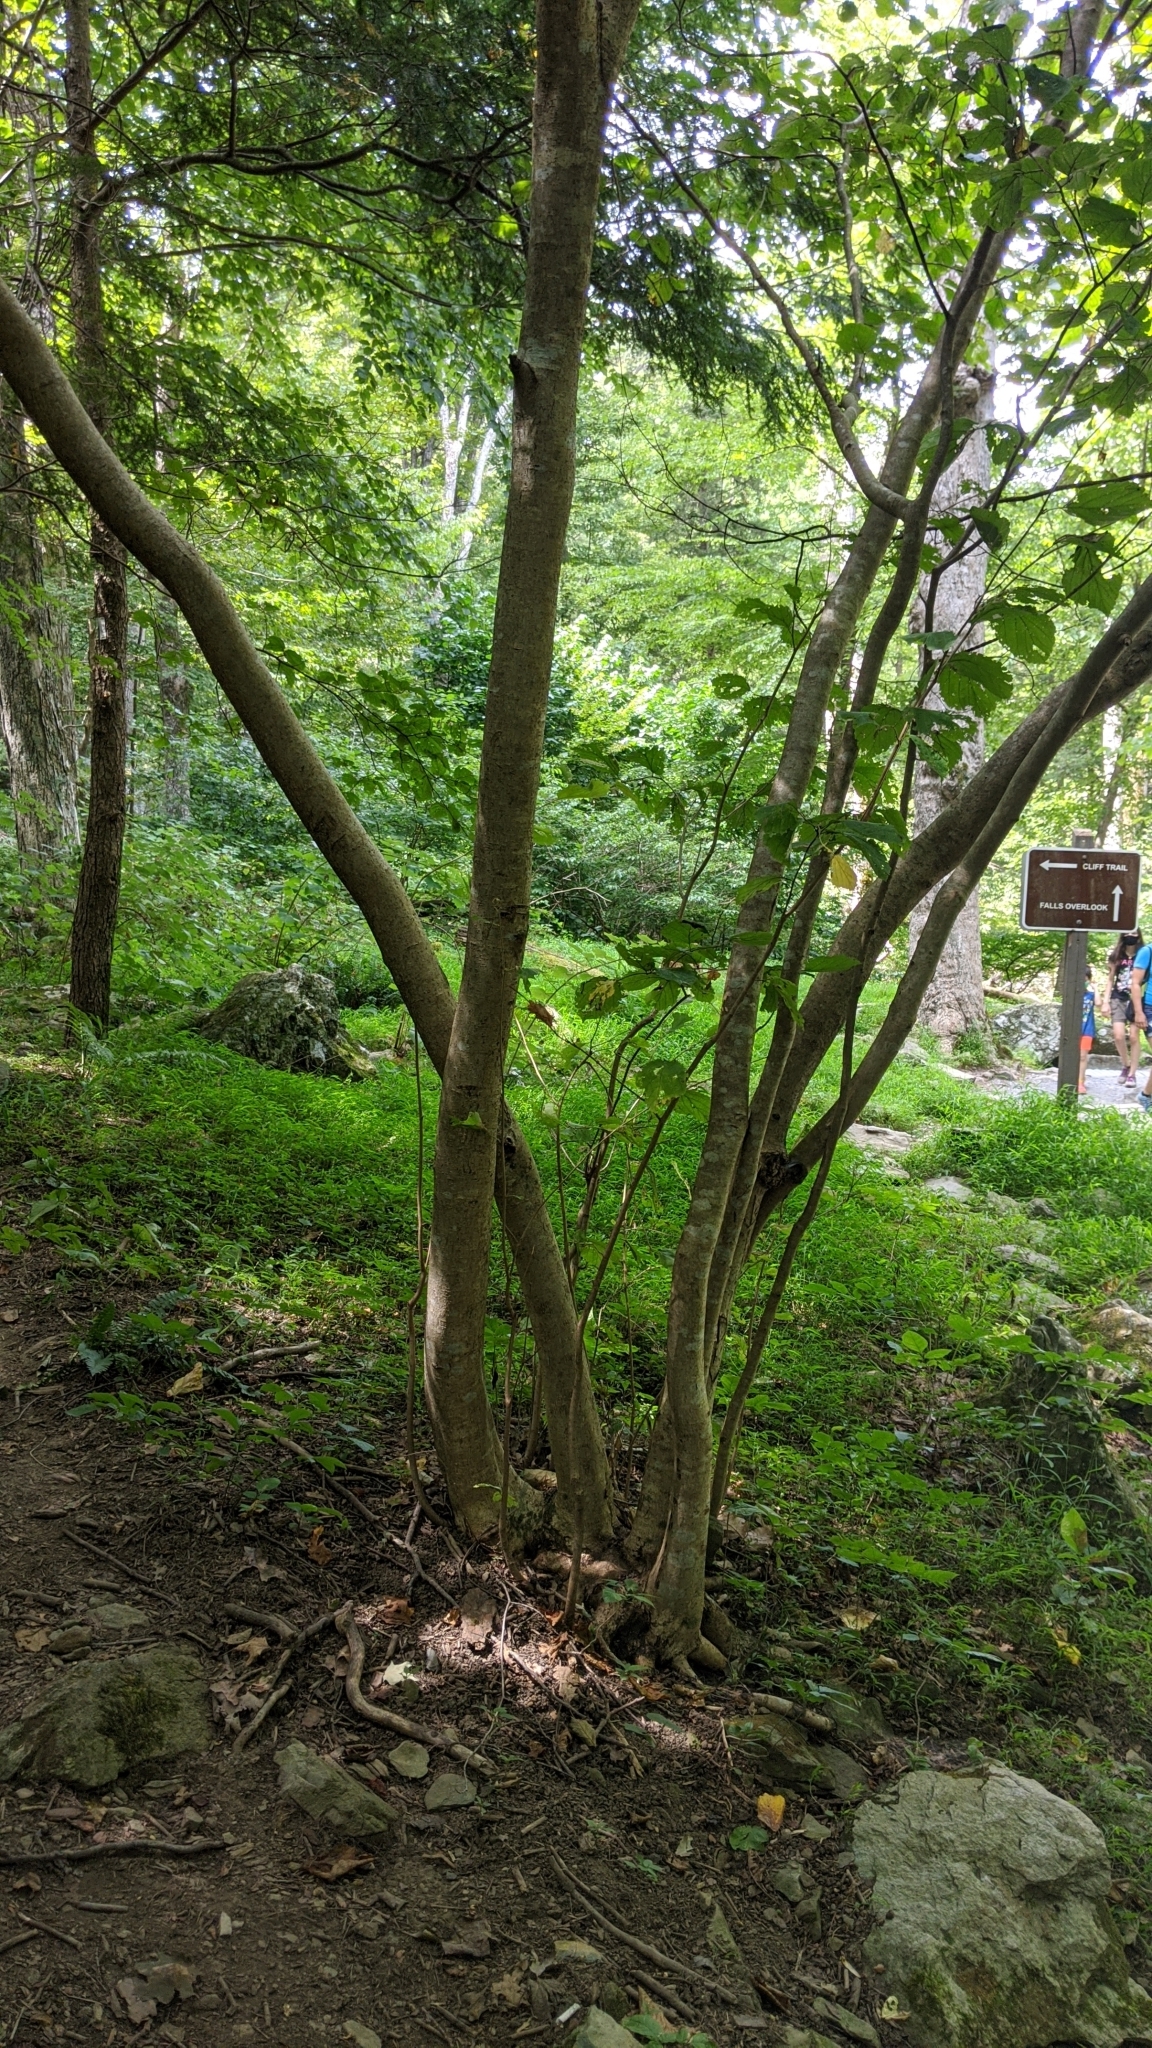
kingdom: Plantae
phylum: Tracheophyta
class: Magnoliopsida
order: Saxifragales
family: Hamamelidaceae
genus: Hamamelis
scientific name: Hamamelis virginiana
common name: Witch-hazel
